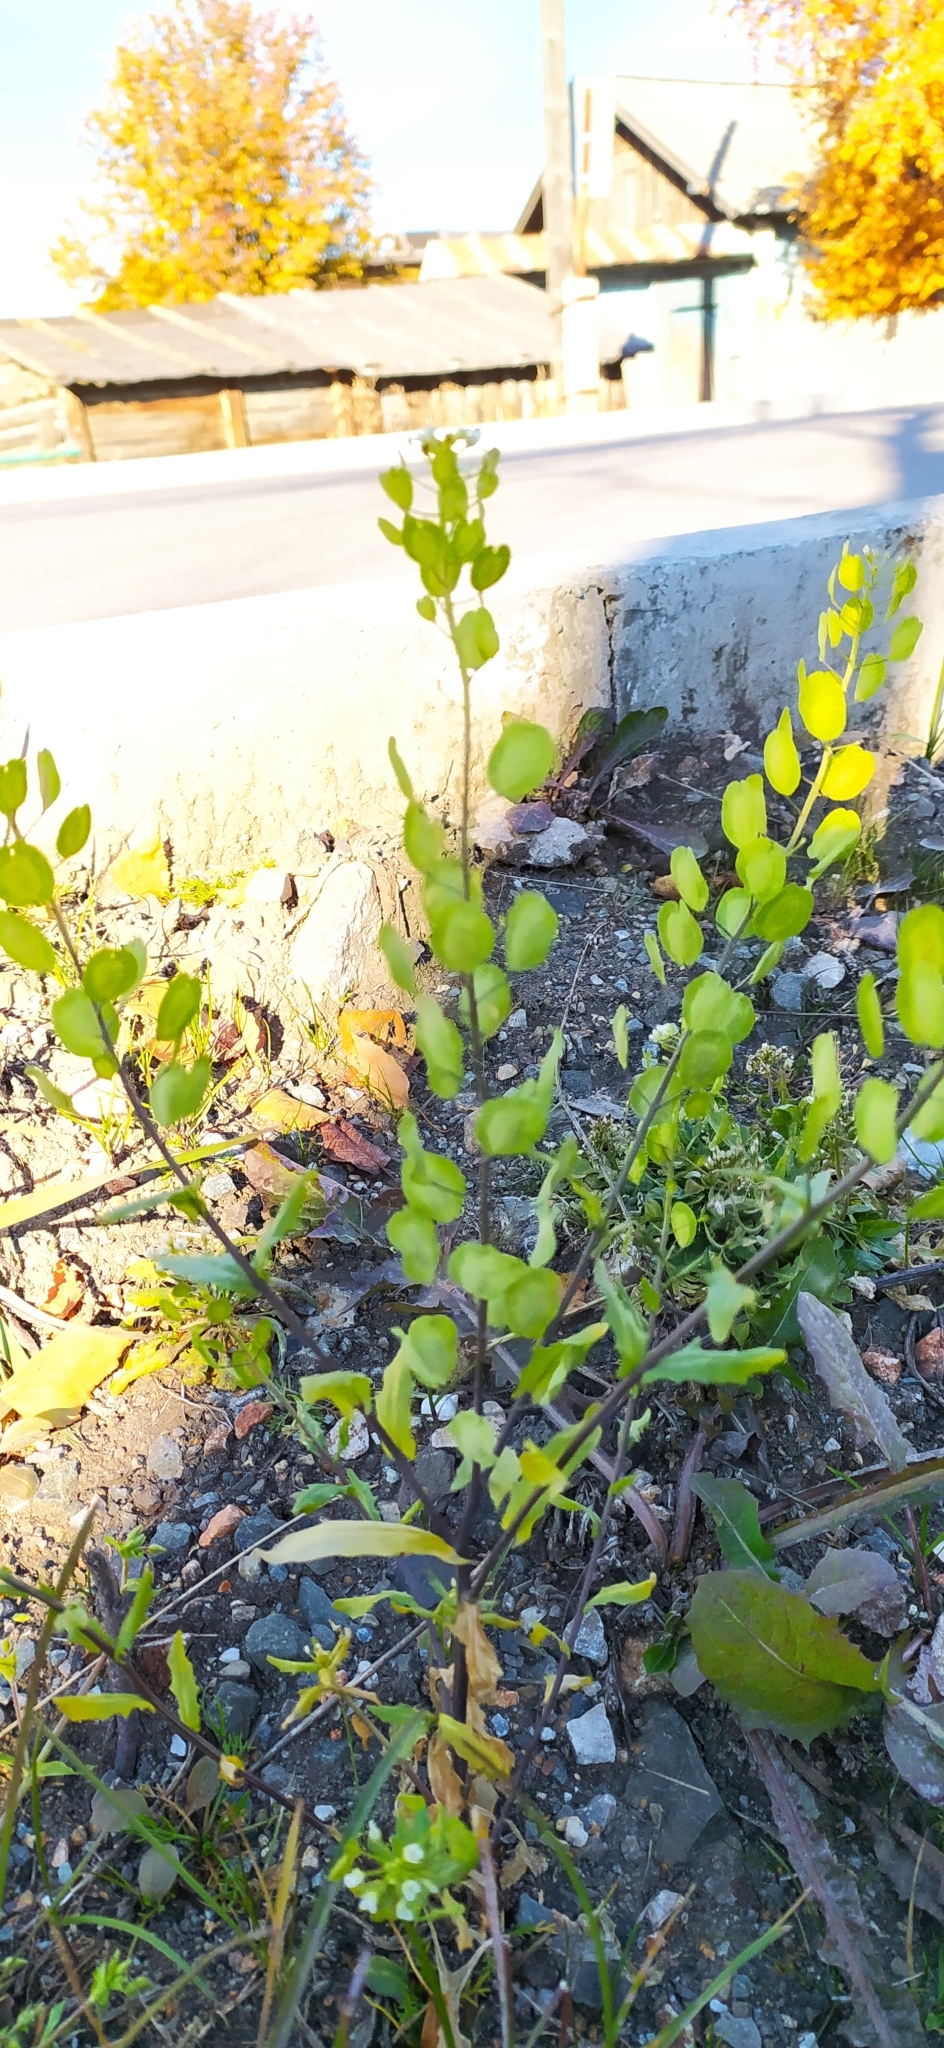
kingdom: Plantae
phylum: Tracheophyta
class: Magnoliopsida
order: Brassicales
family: Brassicaceae
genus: Thlaspi
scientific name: Thlaspi arvense
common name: Field pennycress
